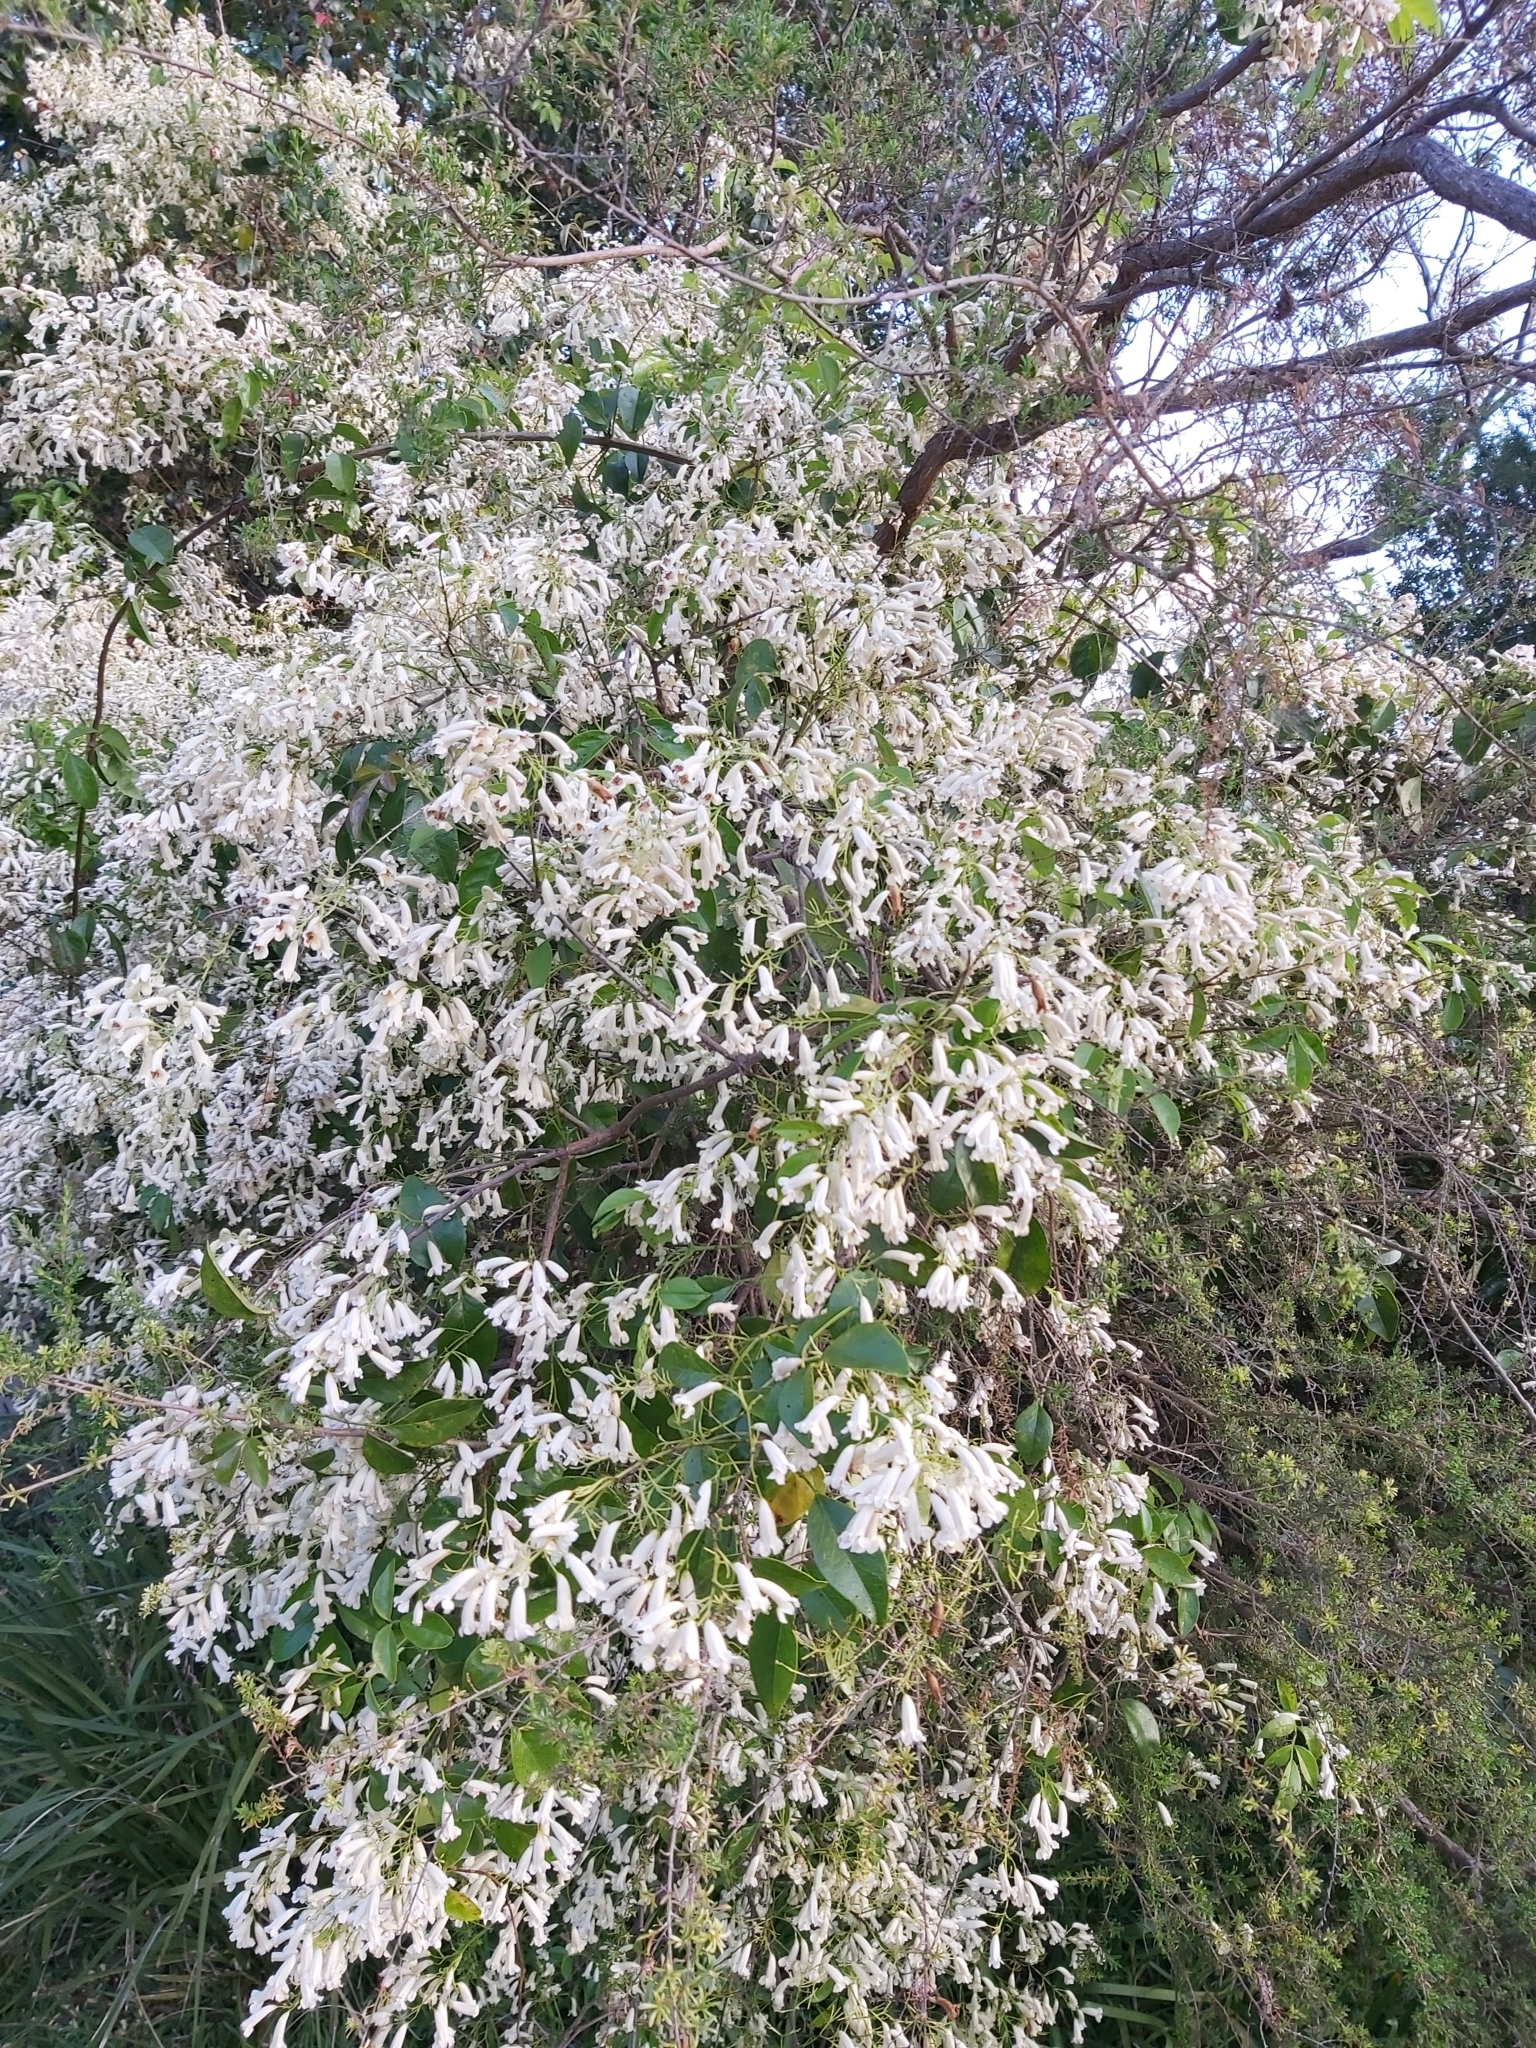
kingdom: Plantae
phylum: Tracheophyta
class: Magnoliopsida
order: Lamiales
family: Bignoniaceae
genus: Pandorea
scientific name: Pandorea pandorana
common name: Wonga-wonga-vine
